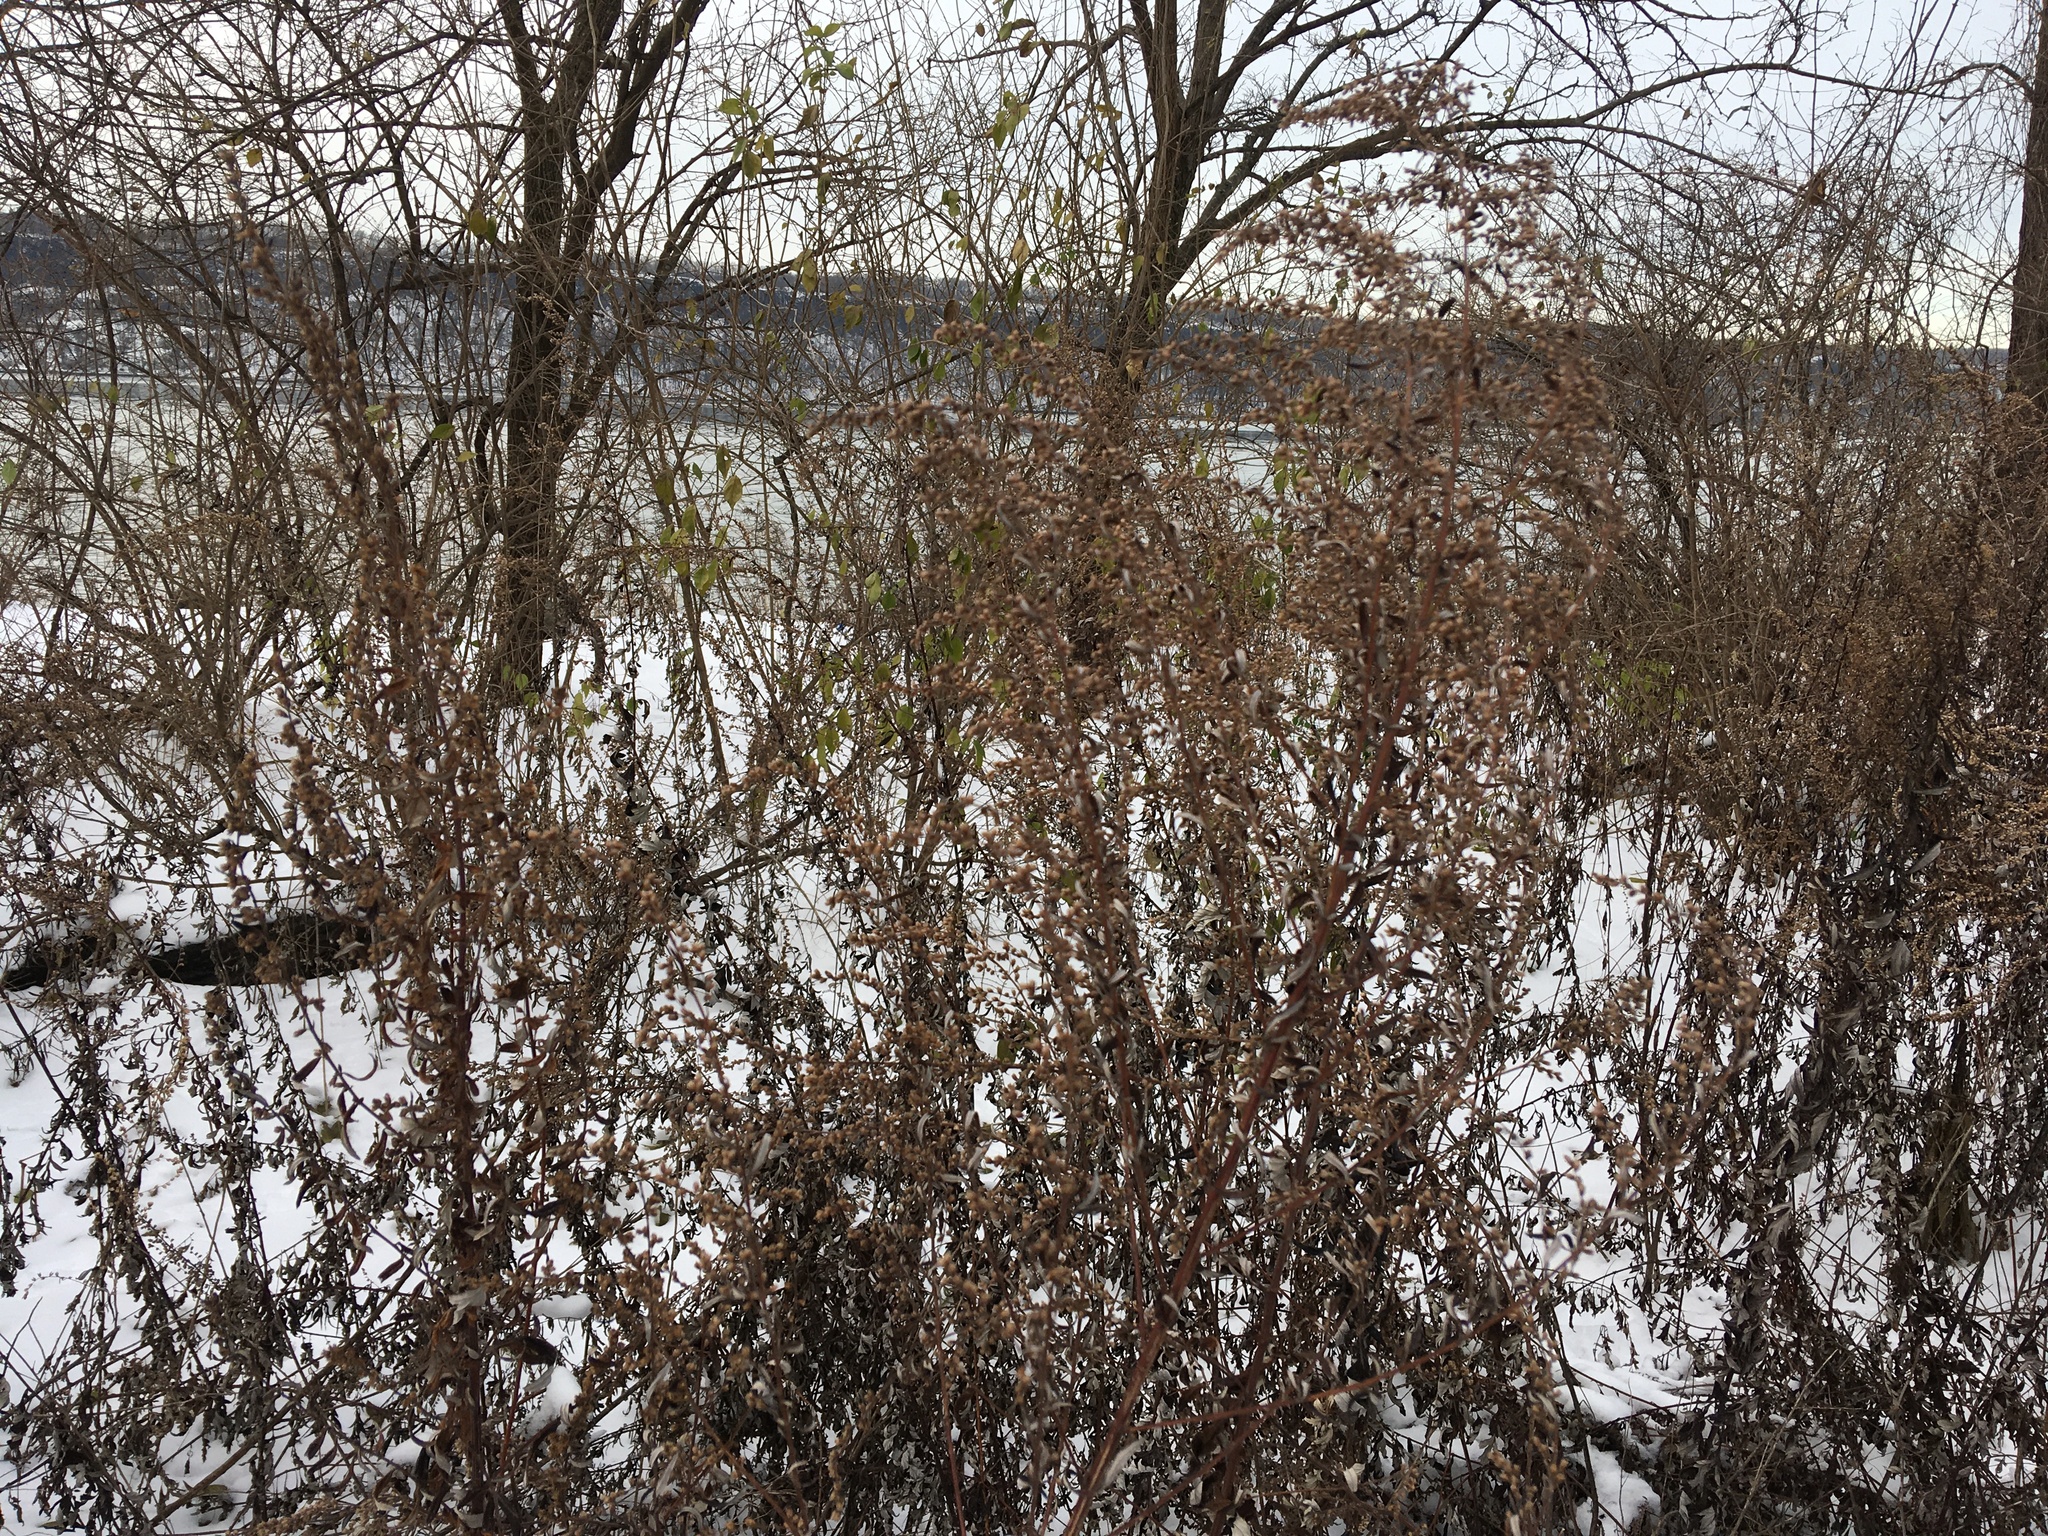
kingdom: Plantae
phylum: Tracheophyta
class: Magnoliopsida
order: Asterales
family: Asteraceae
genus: Artemisia
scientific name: Artemisia vulgaris
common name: Mugwort
